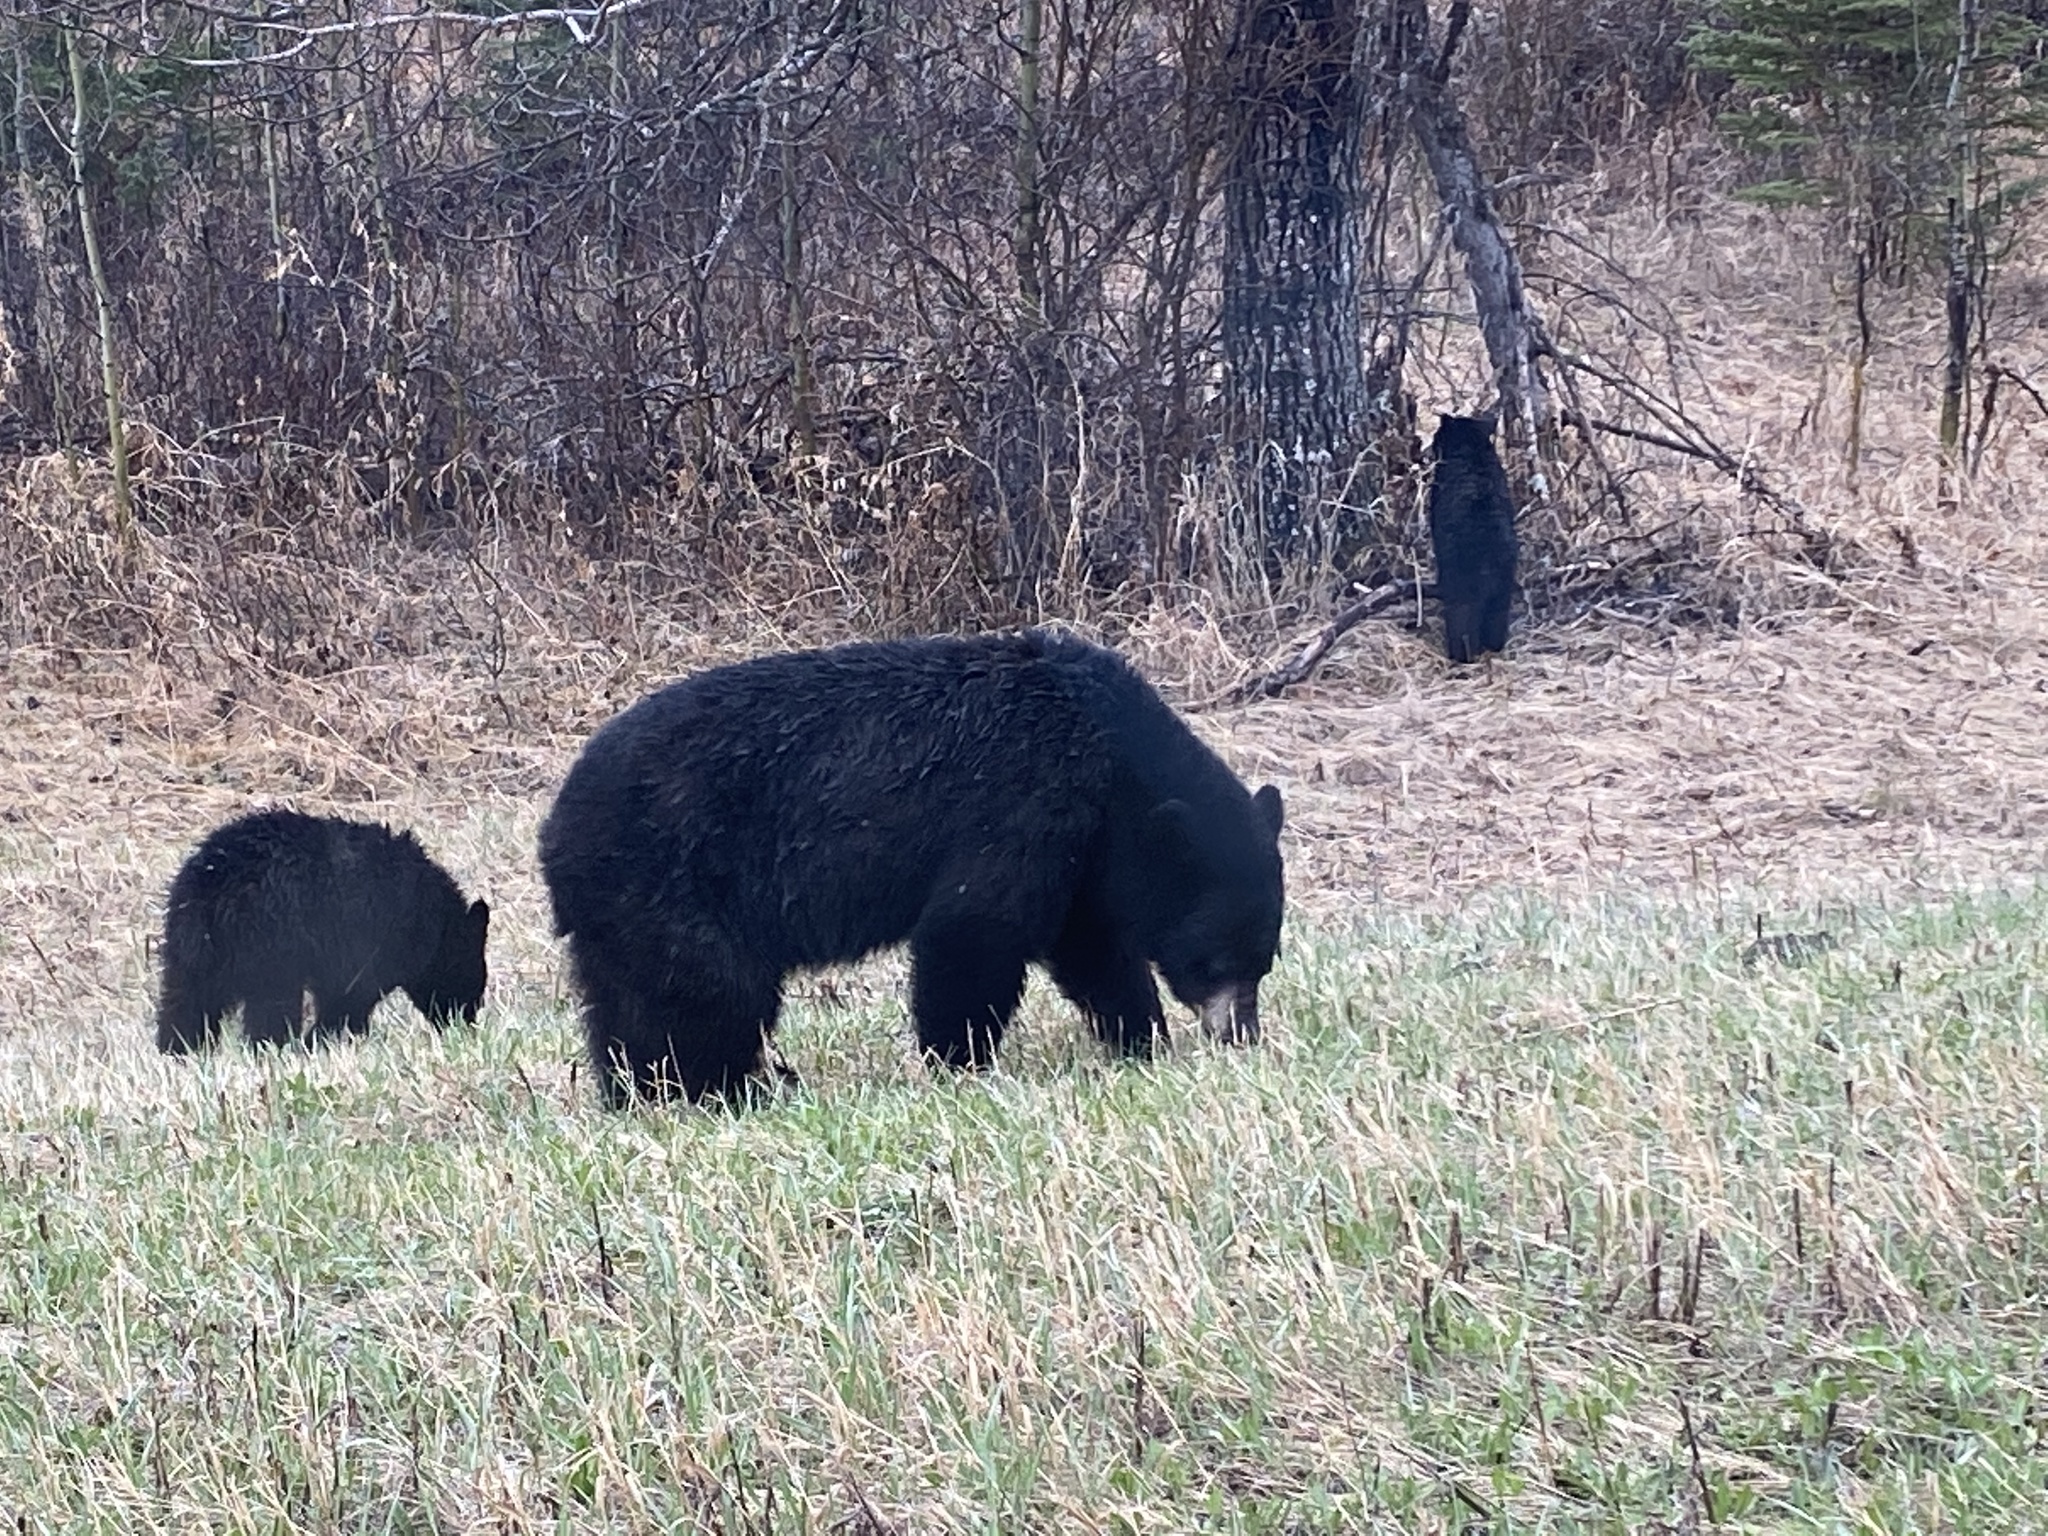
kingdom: Animalia
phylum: Chordata
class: Mammalia
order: Carnivora
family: Ursidae
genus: Ursus
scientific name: Ursus americanus
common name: American black bear
